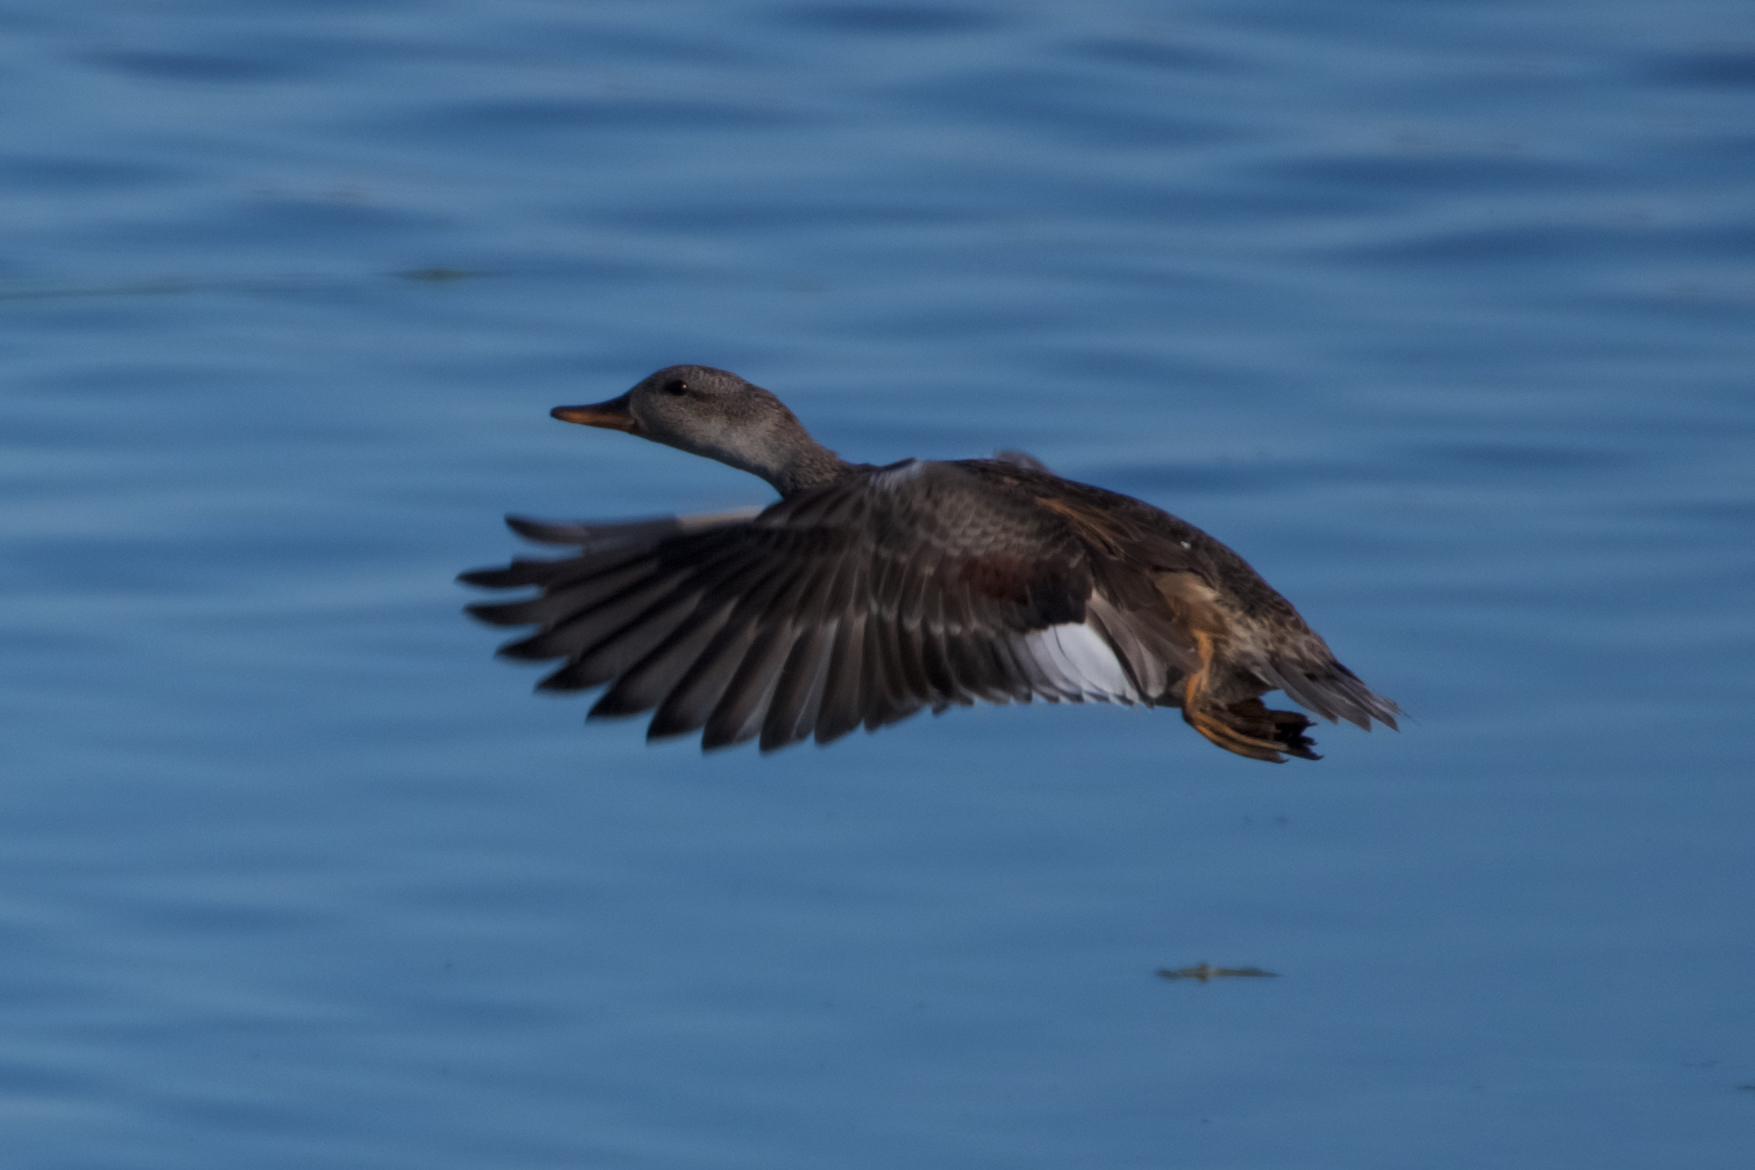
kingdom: Animalia
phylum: Chordata
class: Aves
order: Anseriformes
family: Anatidae
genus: Mareca
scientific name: Mareca strepera
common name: Gadwall
